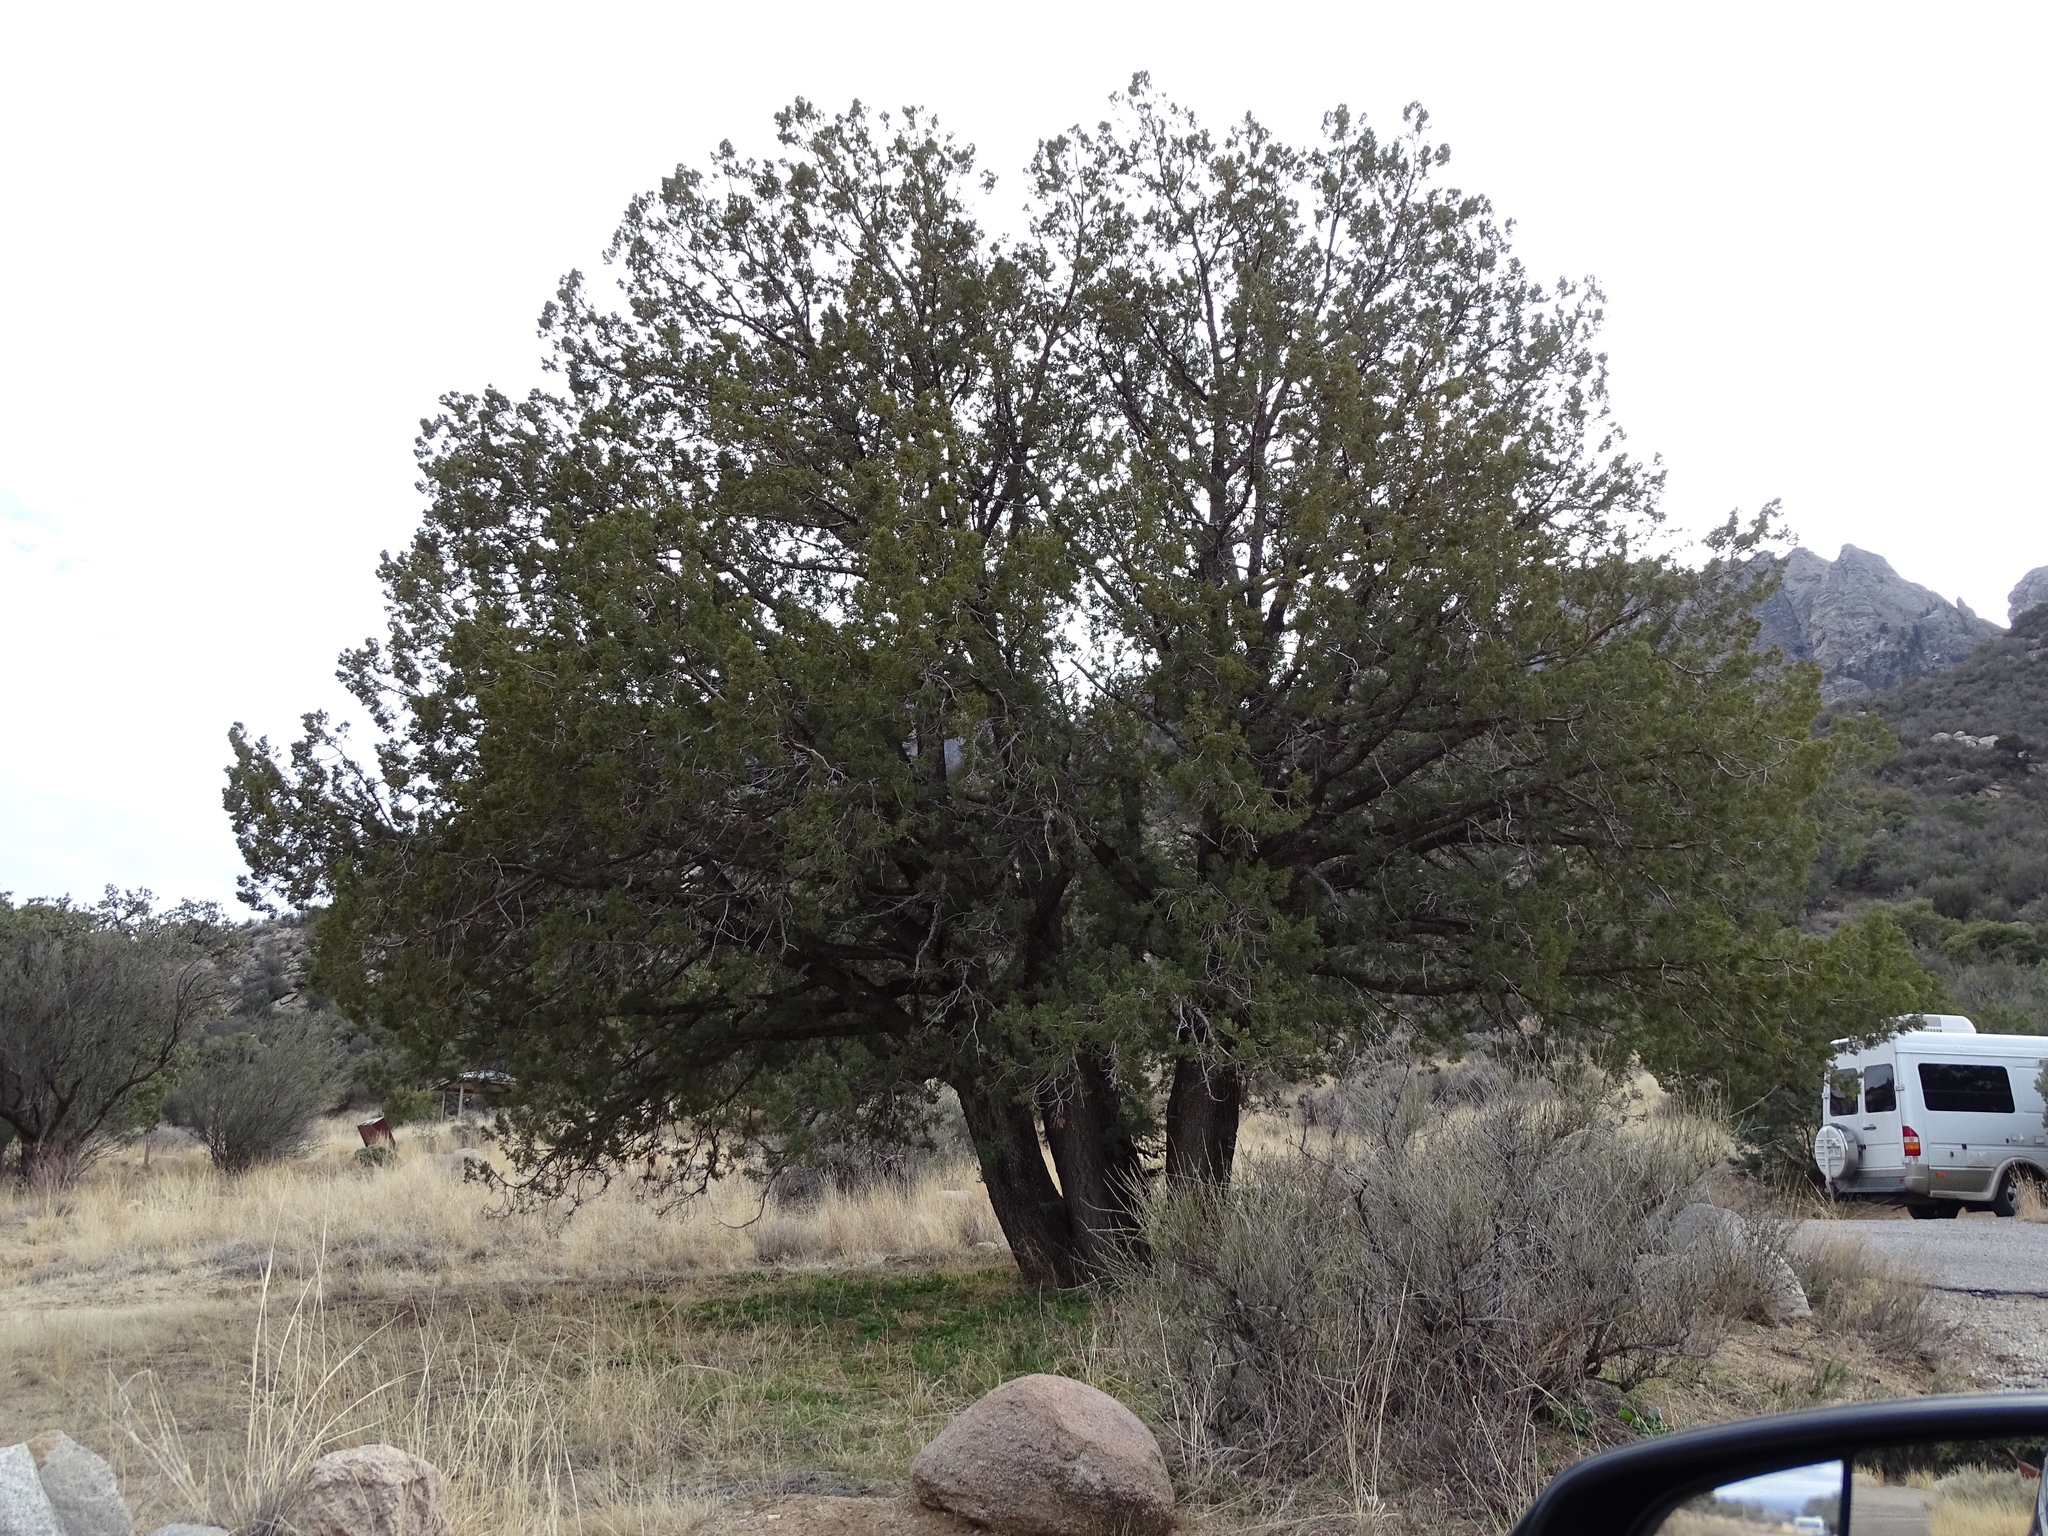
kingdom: Plantae
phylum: Tracheophyta
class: Pinopsida
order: Pinales
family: Cupressaceae
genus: Juniperus
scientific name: Juniperus deppeana
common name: Alligator juniper
